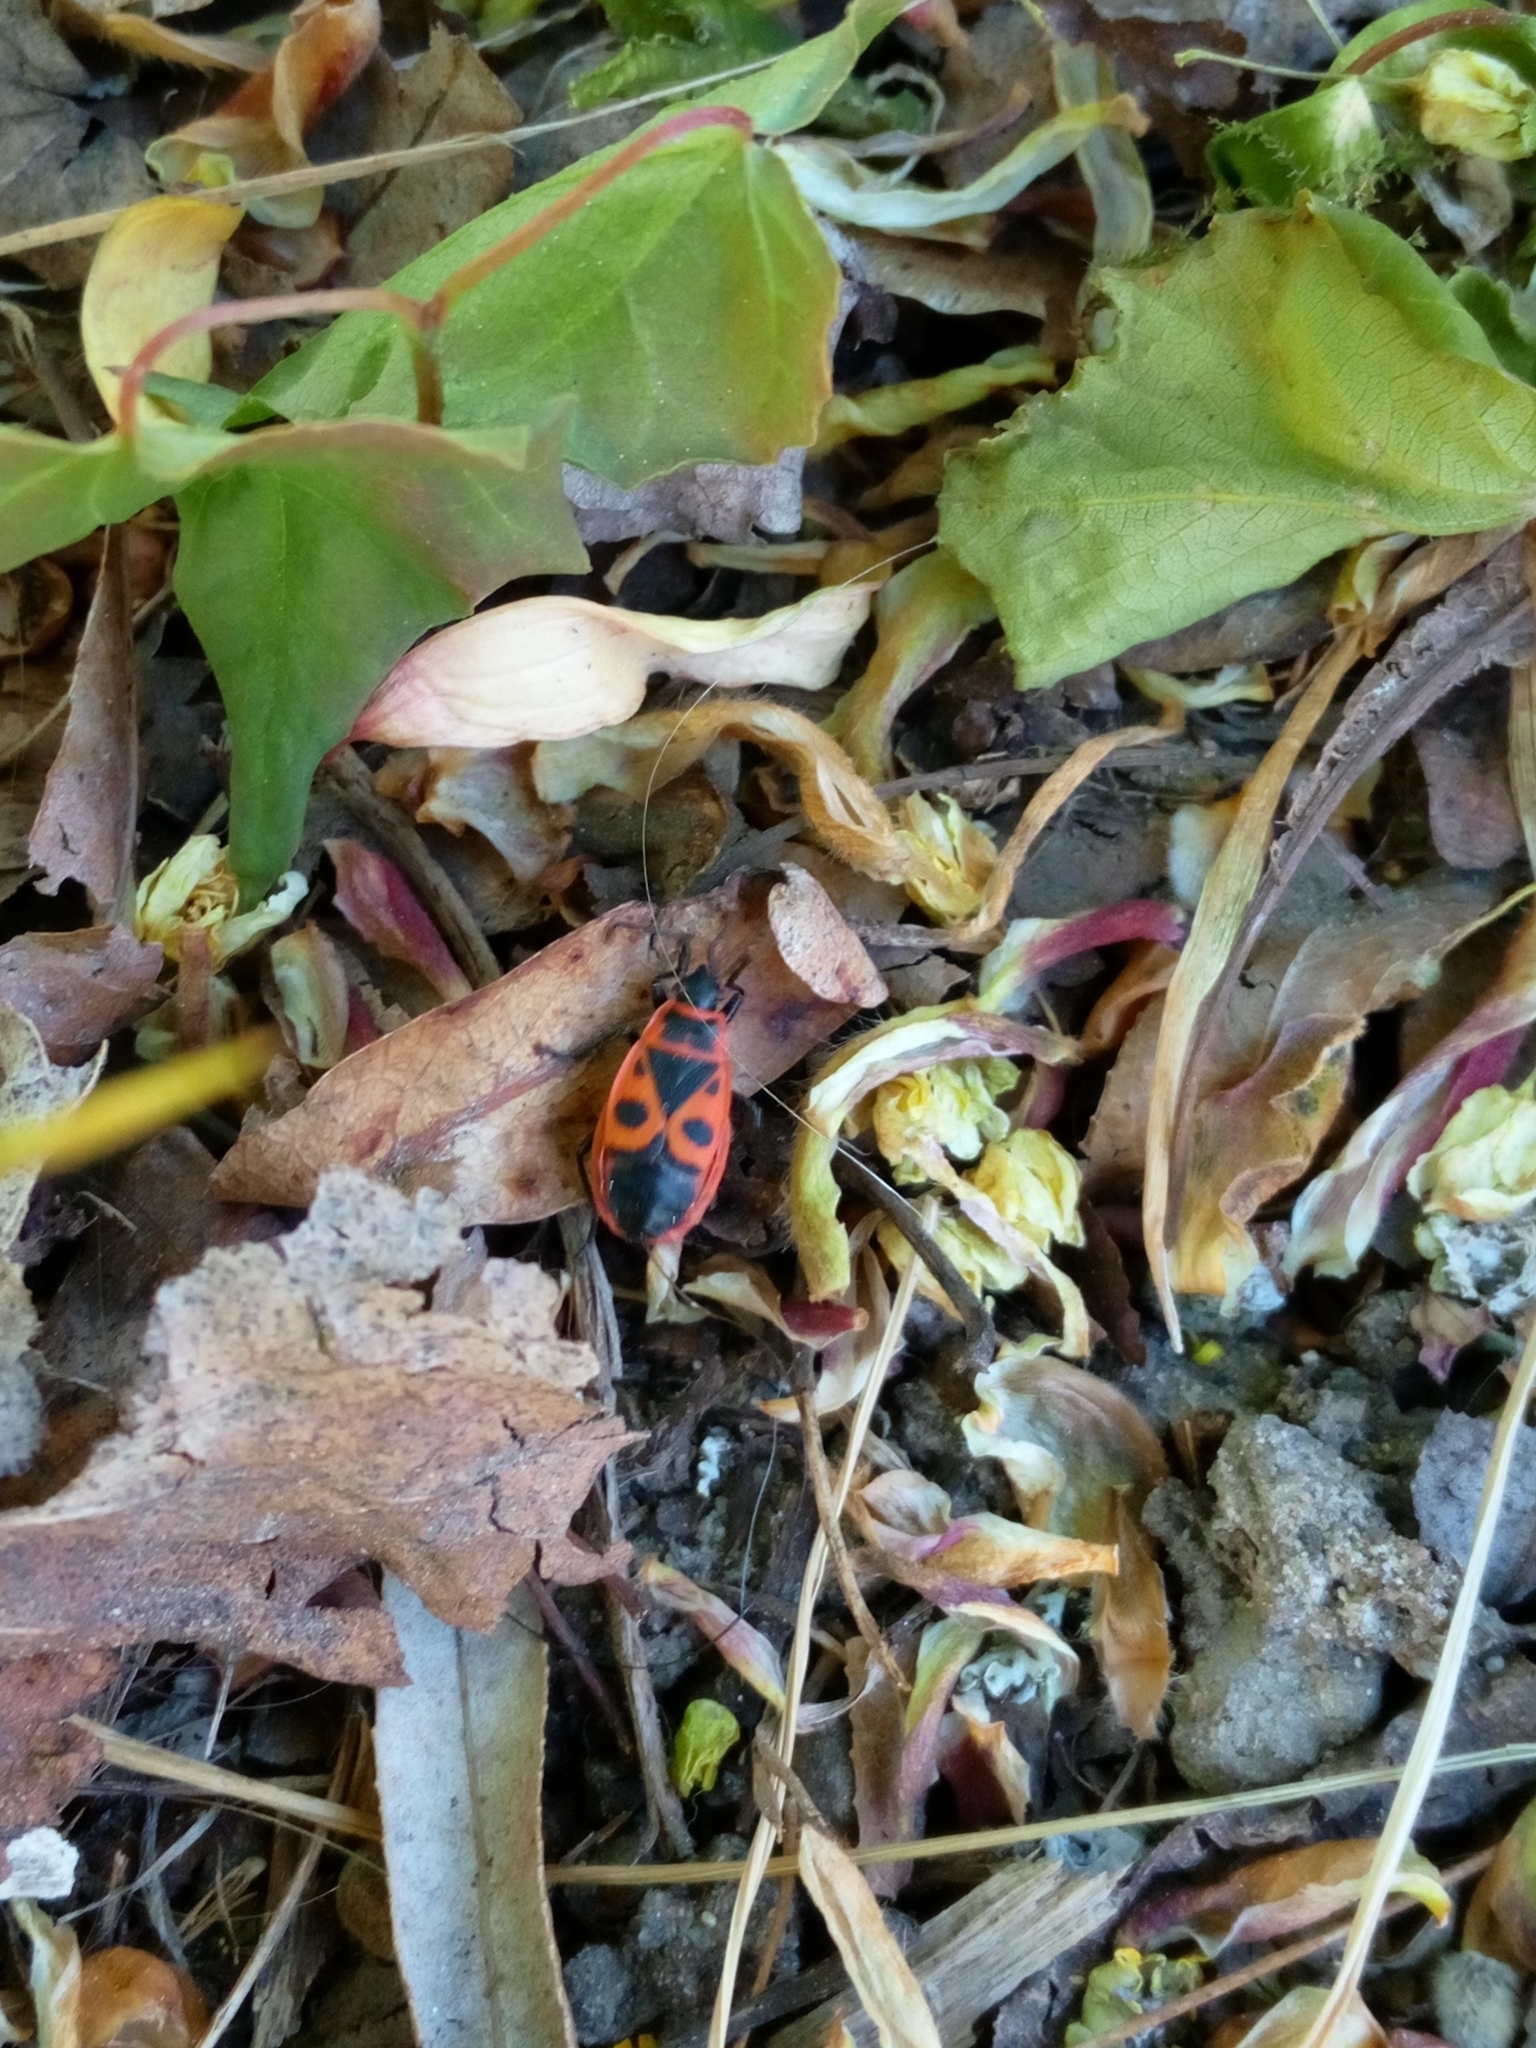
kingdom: Animalia
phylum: Arthropoda
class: Insecta
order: Hemiptera
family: Pyrrhocoridae
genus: Pyrrhocoris
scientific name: Pyrrhocoris apterus
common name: Firebug
